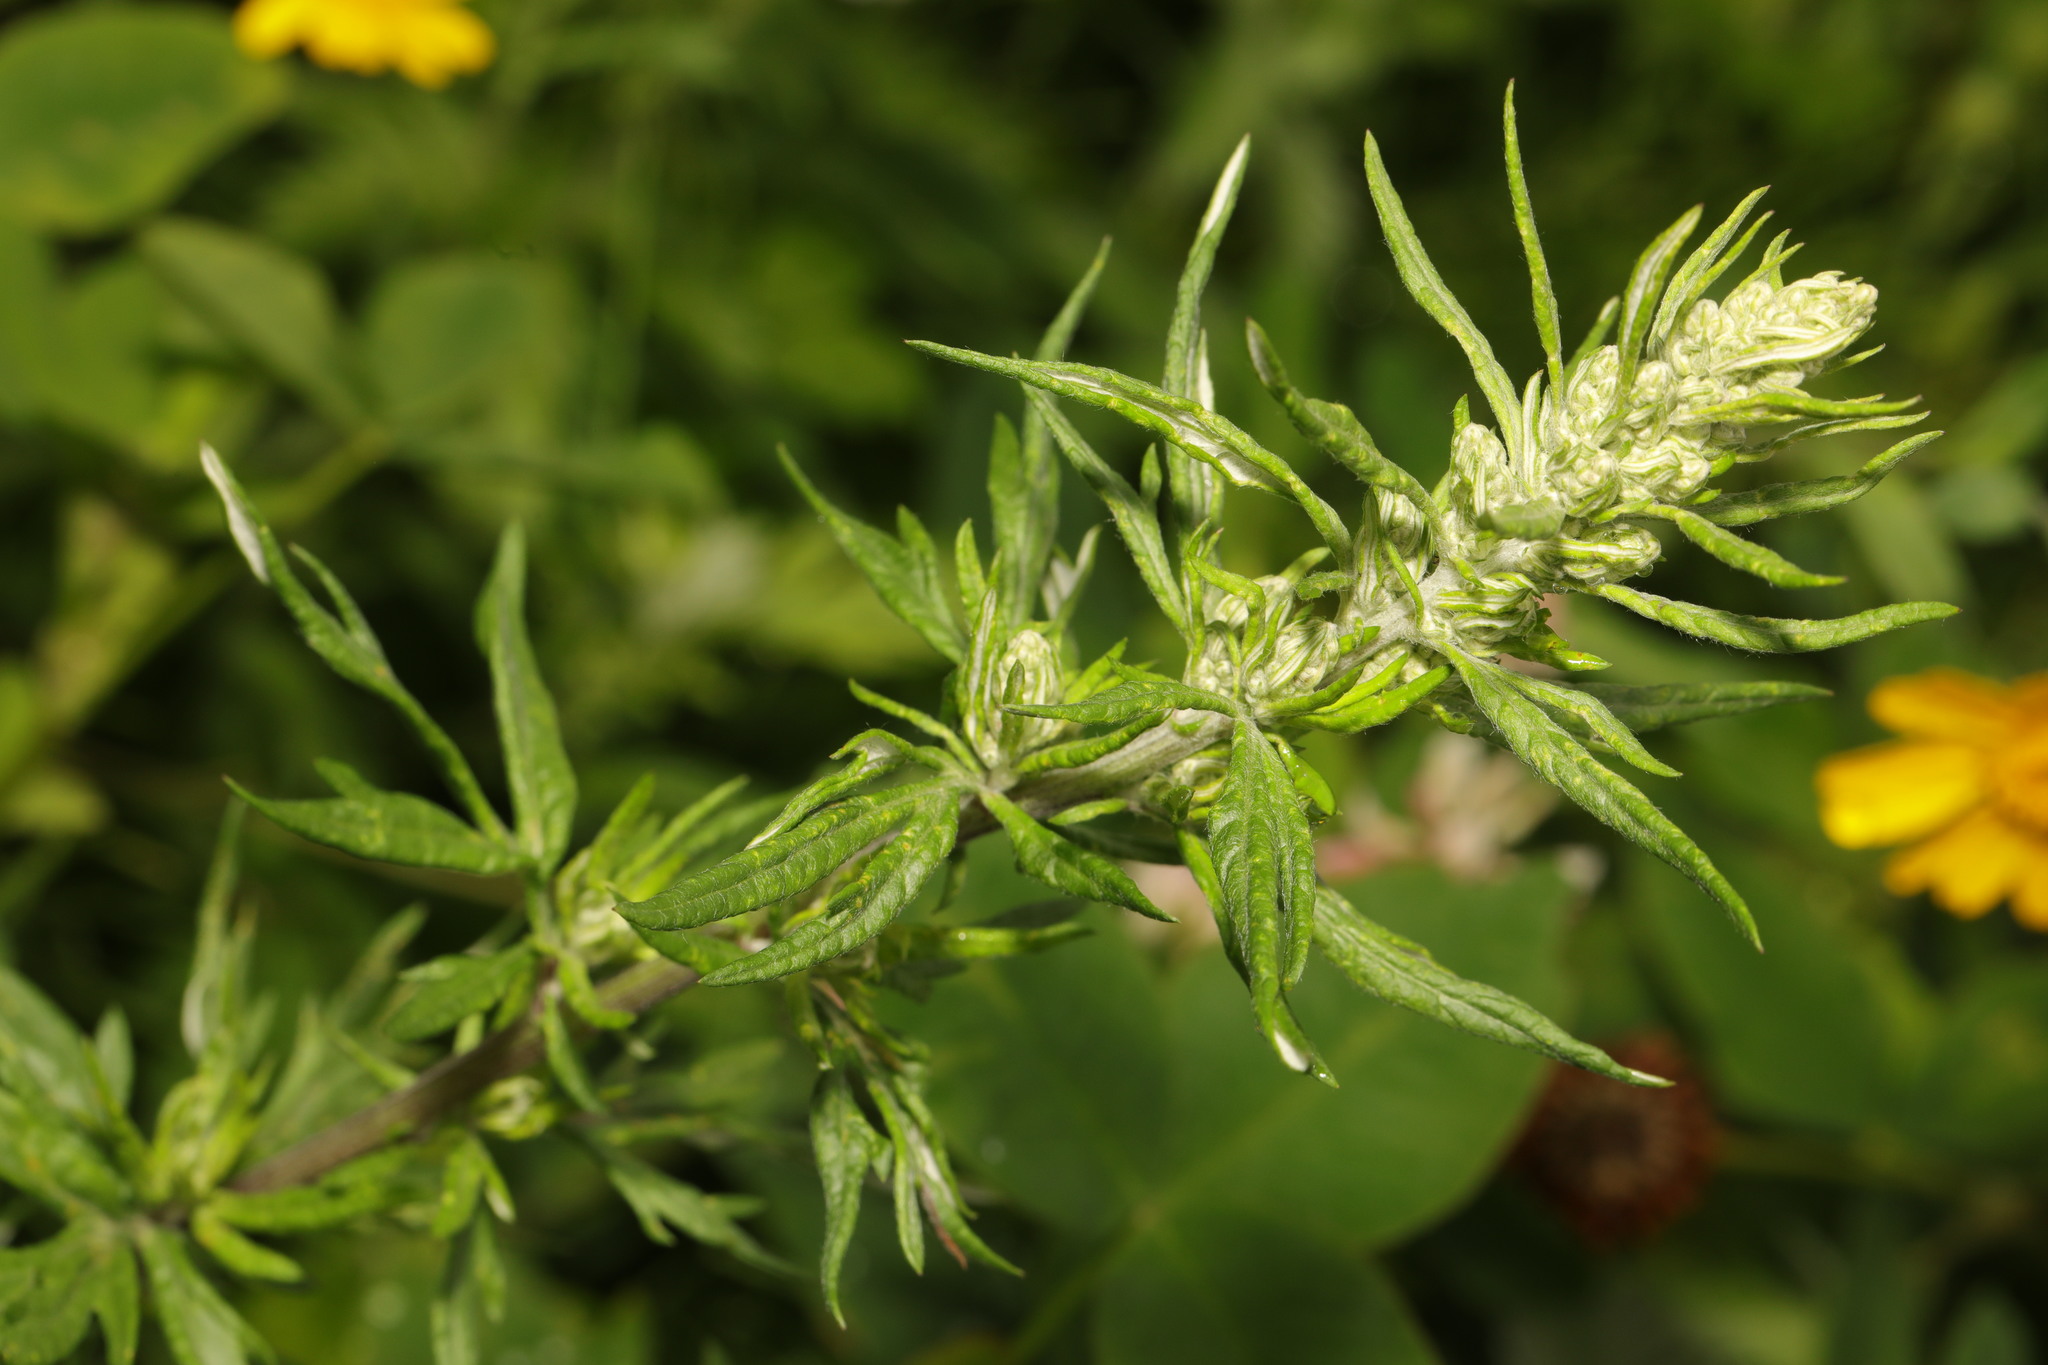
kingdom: Plantae
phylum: Tracheophyta
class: Magnoliopsida
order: Asterales
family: Asteraceae
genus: Artemisia
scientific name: Artemisia vulgaris
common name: Mugwort
